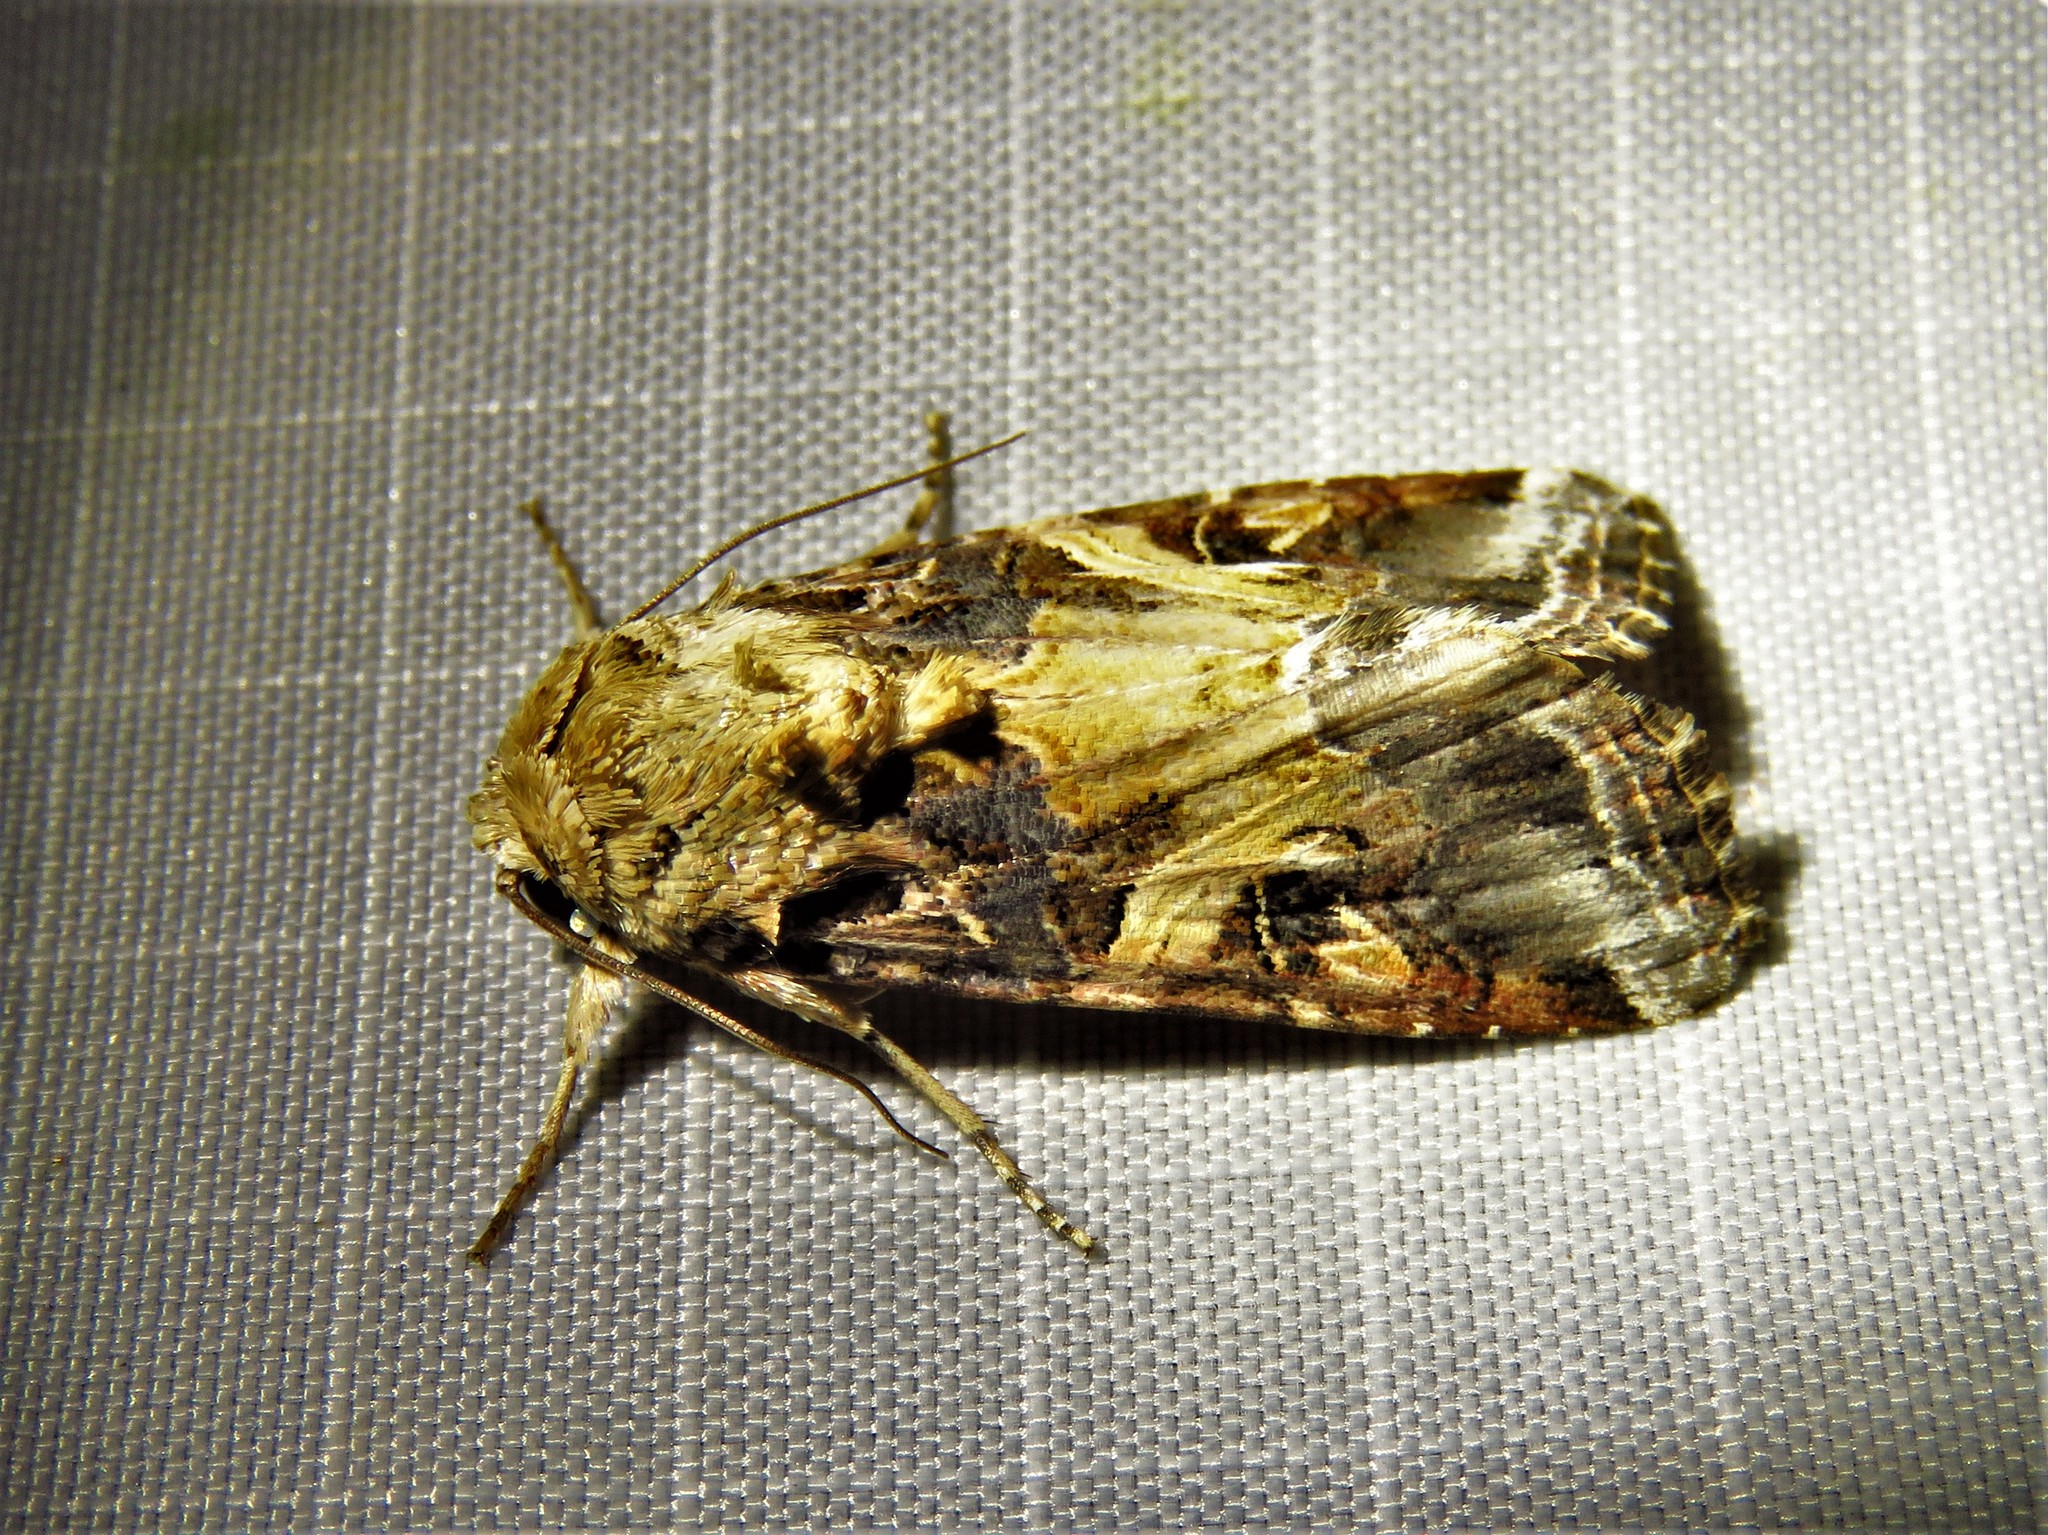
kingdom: Animalia
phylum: Arthropoda
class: Insecta
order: Lepidoptera
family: Noctuidae
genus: Spodoptera
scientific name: Spodoptera ornithogalli
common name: Yellow-striped armyworm
